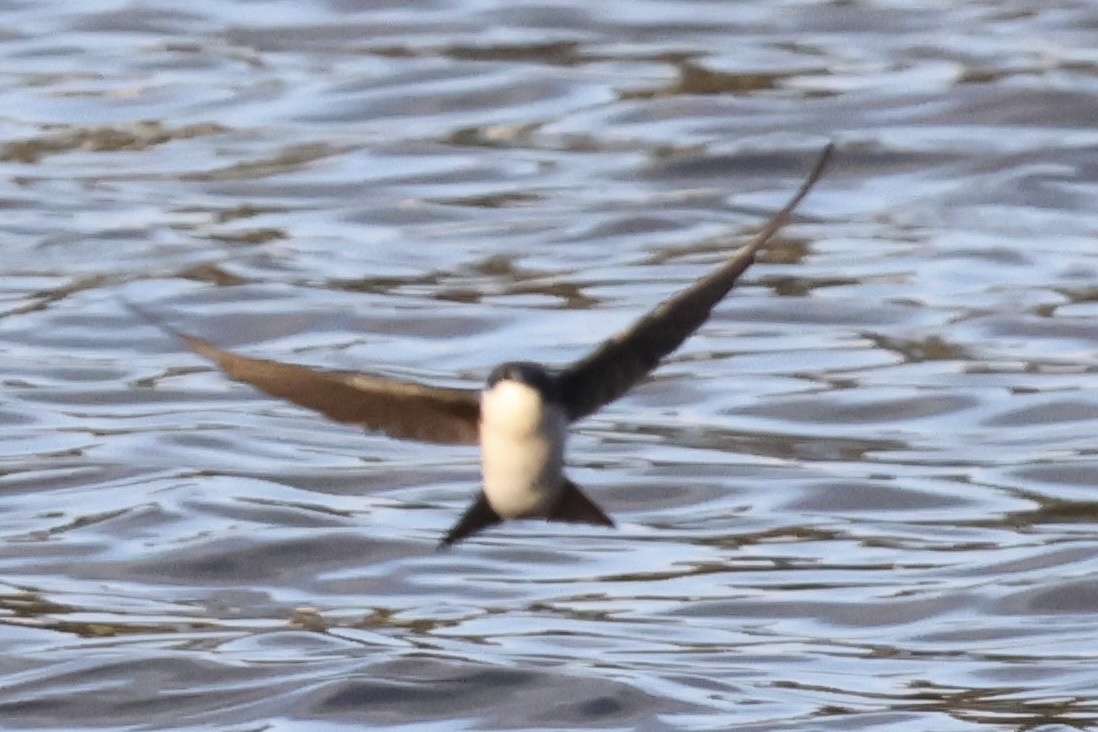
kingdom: Animalia
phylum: Chordata
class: Aves
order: Passeriformes
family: Hirundinidae
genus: Tachycineta
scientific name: Tachycineta bicolor
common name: Tree swallow
